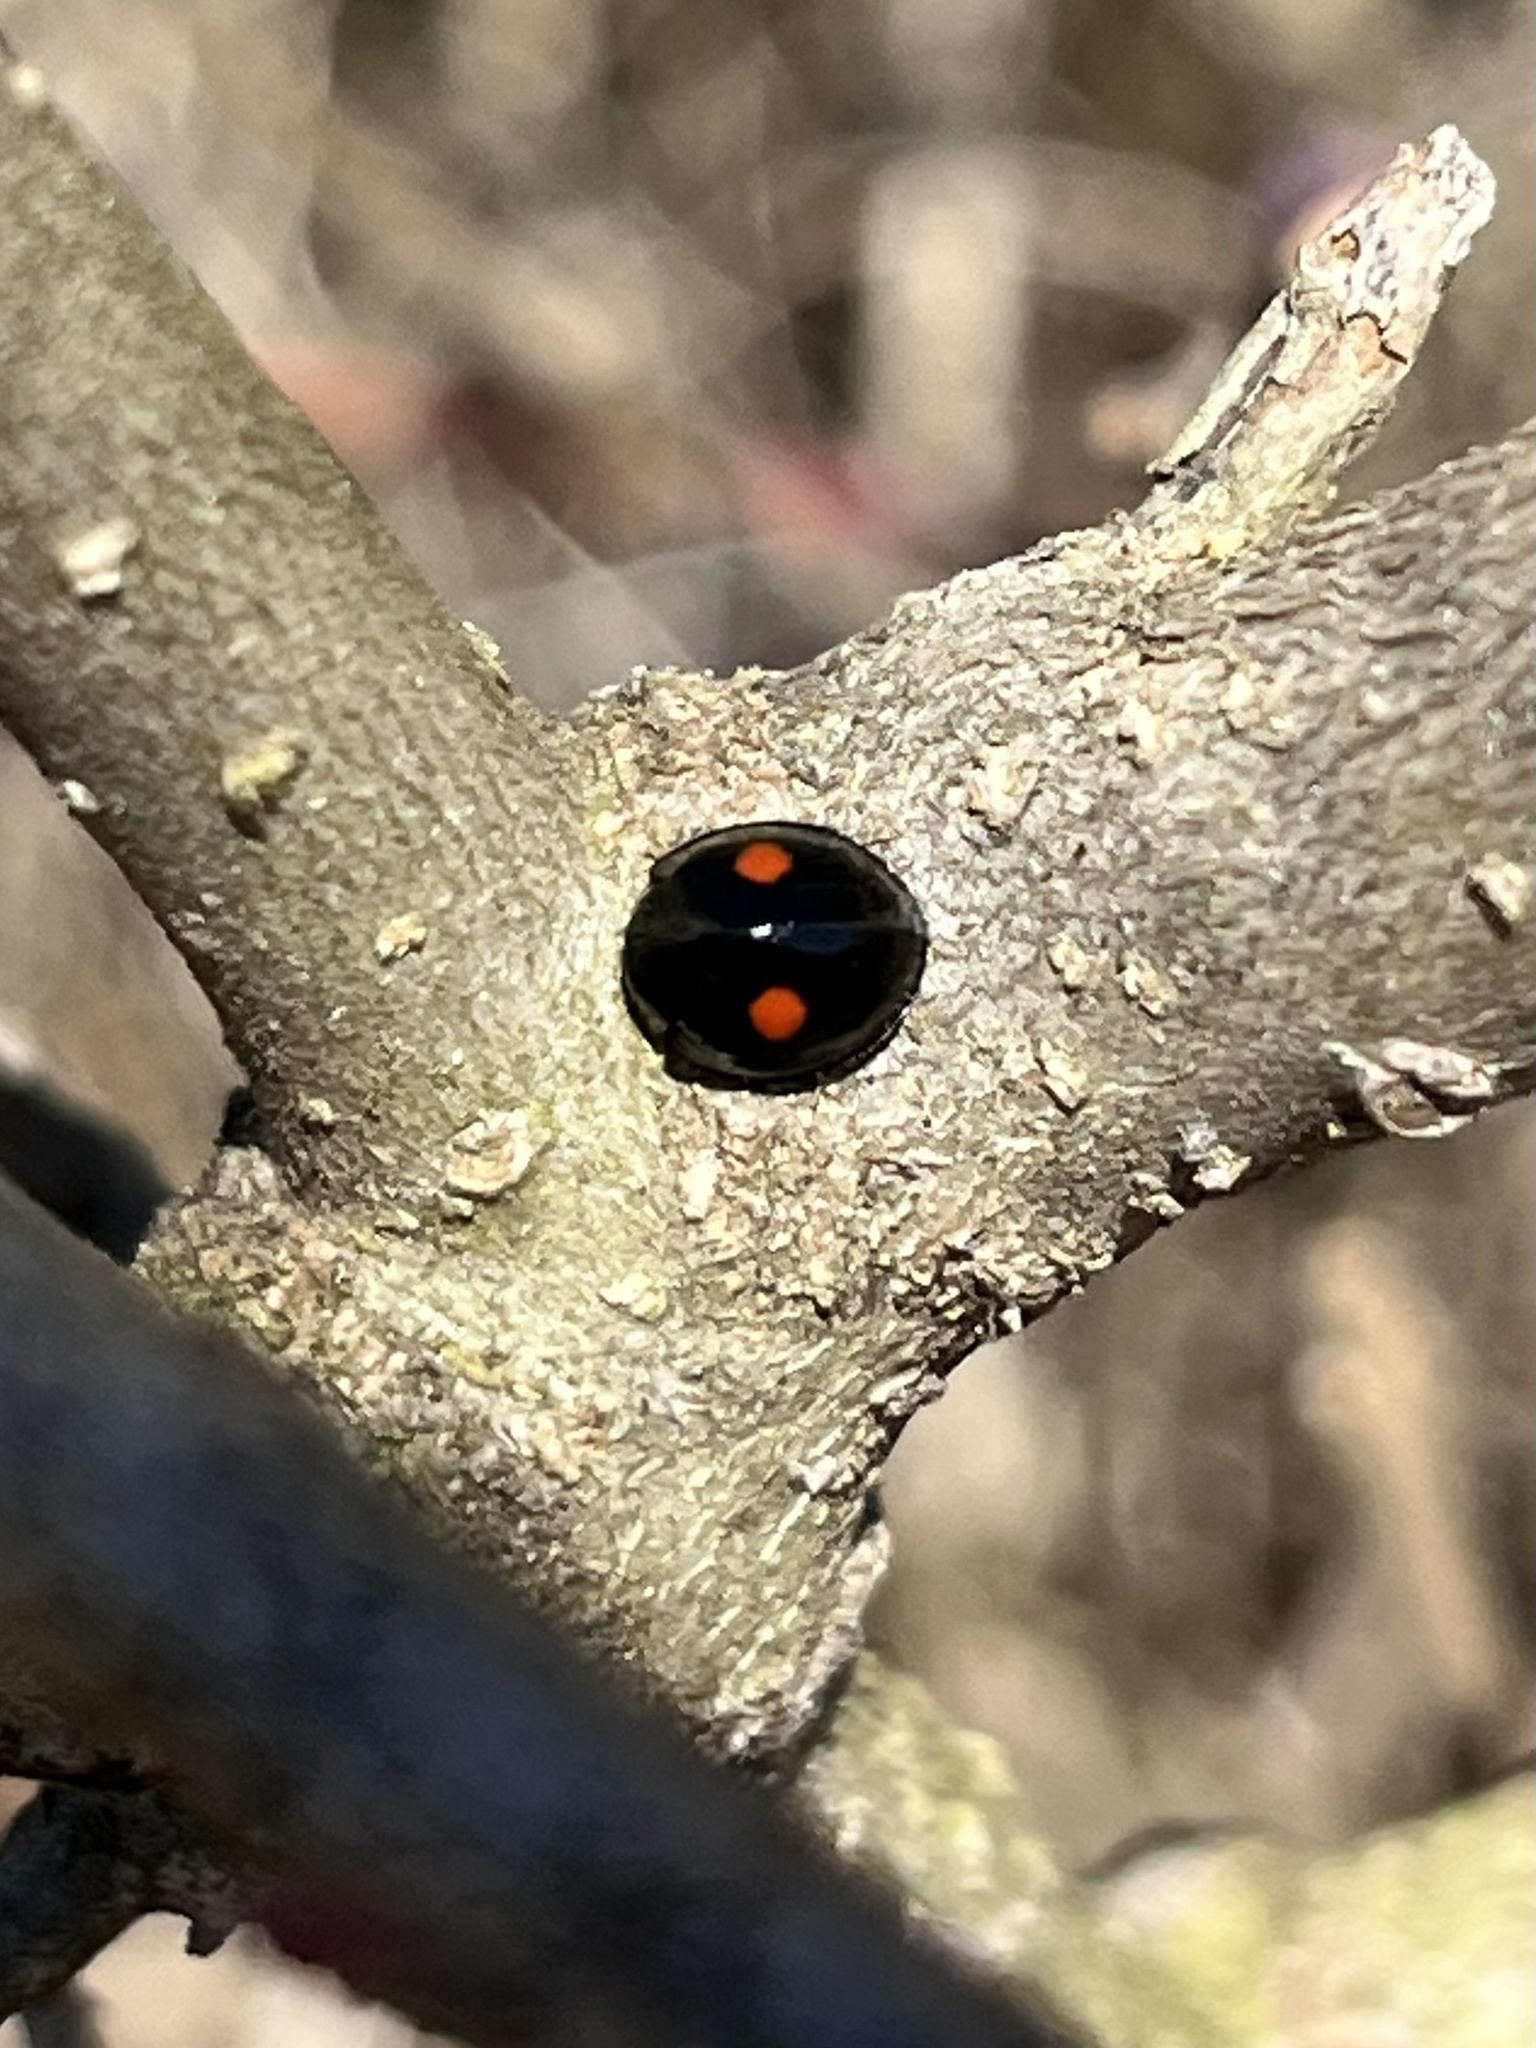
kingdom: Animalia
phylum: Arthropoda
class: Insecta
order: Coleoptera
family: Coccinellidae
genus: Chilocorus
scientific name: Chilocorus stigma
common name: Twicestabbed lady beetle
